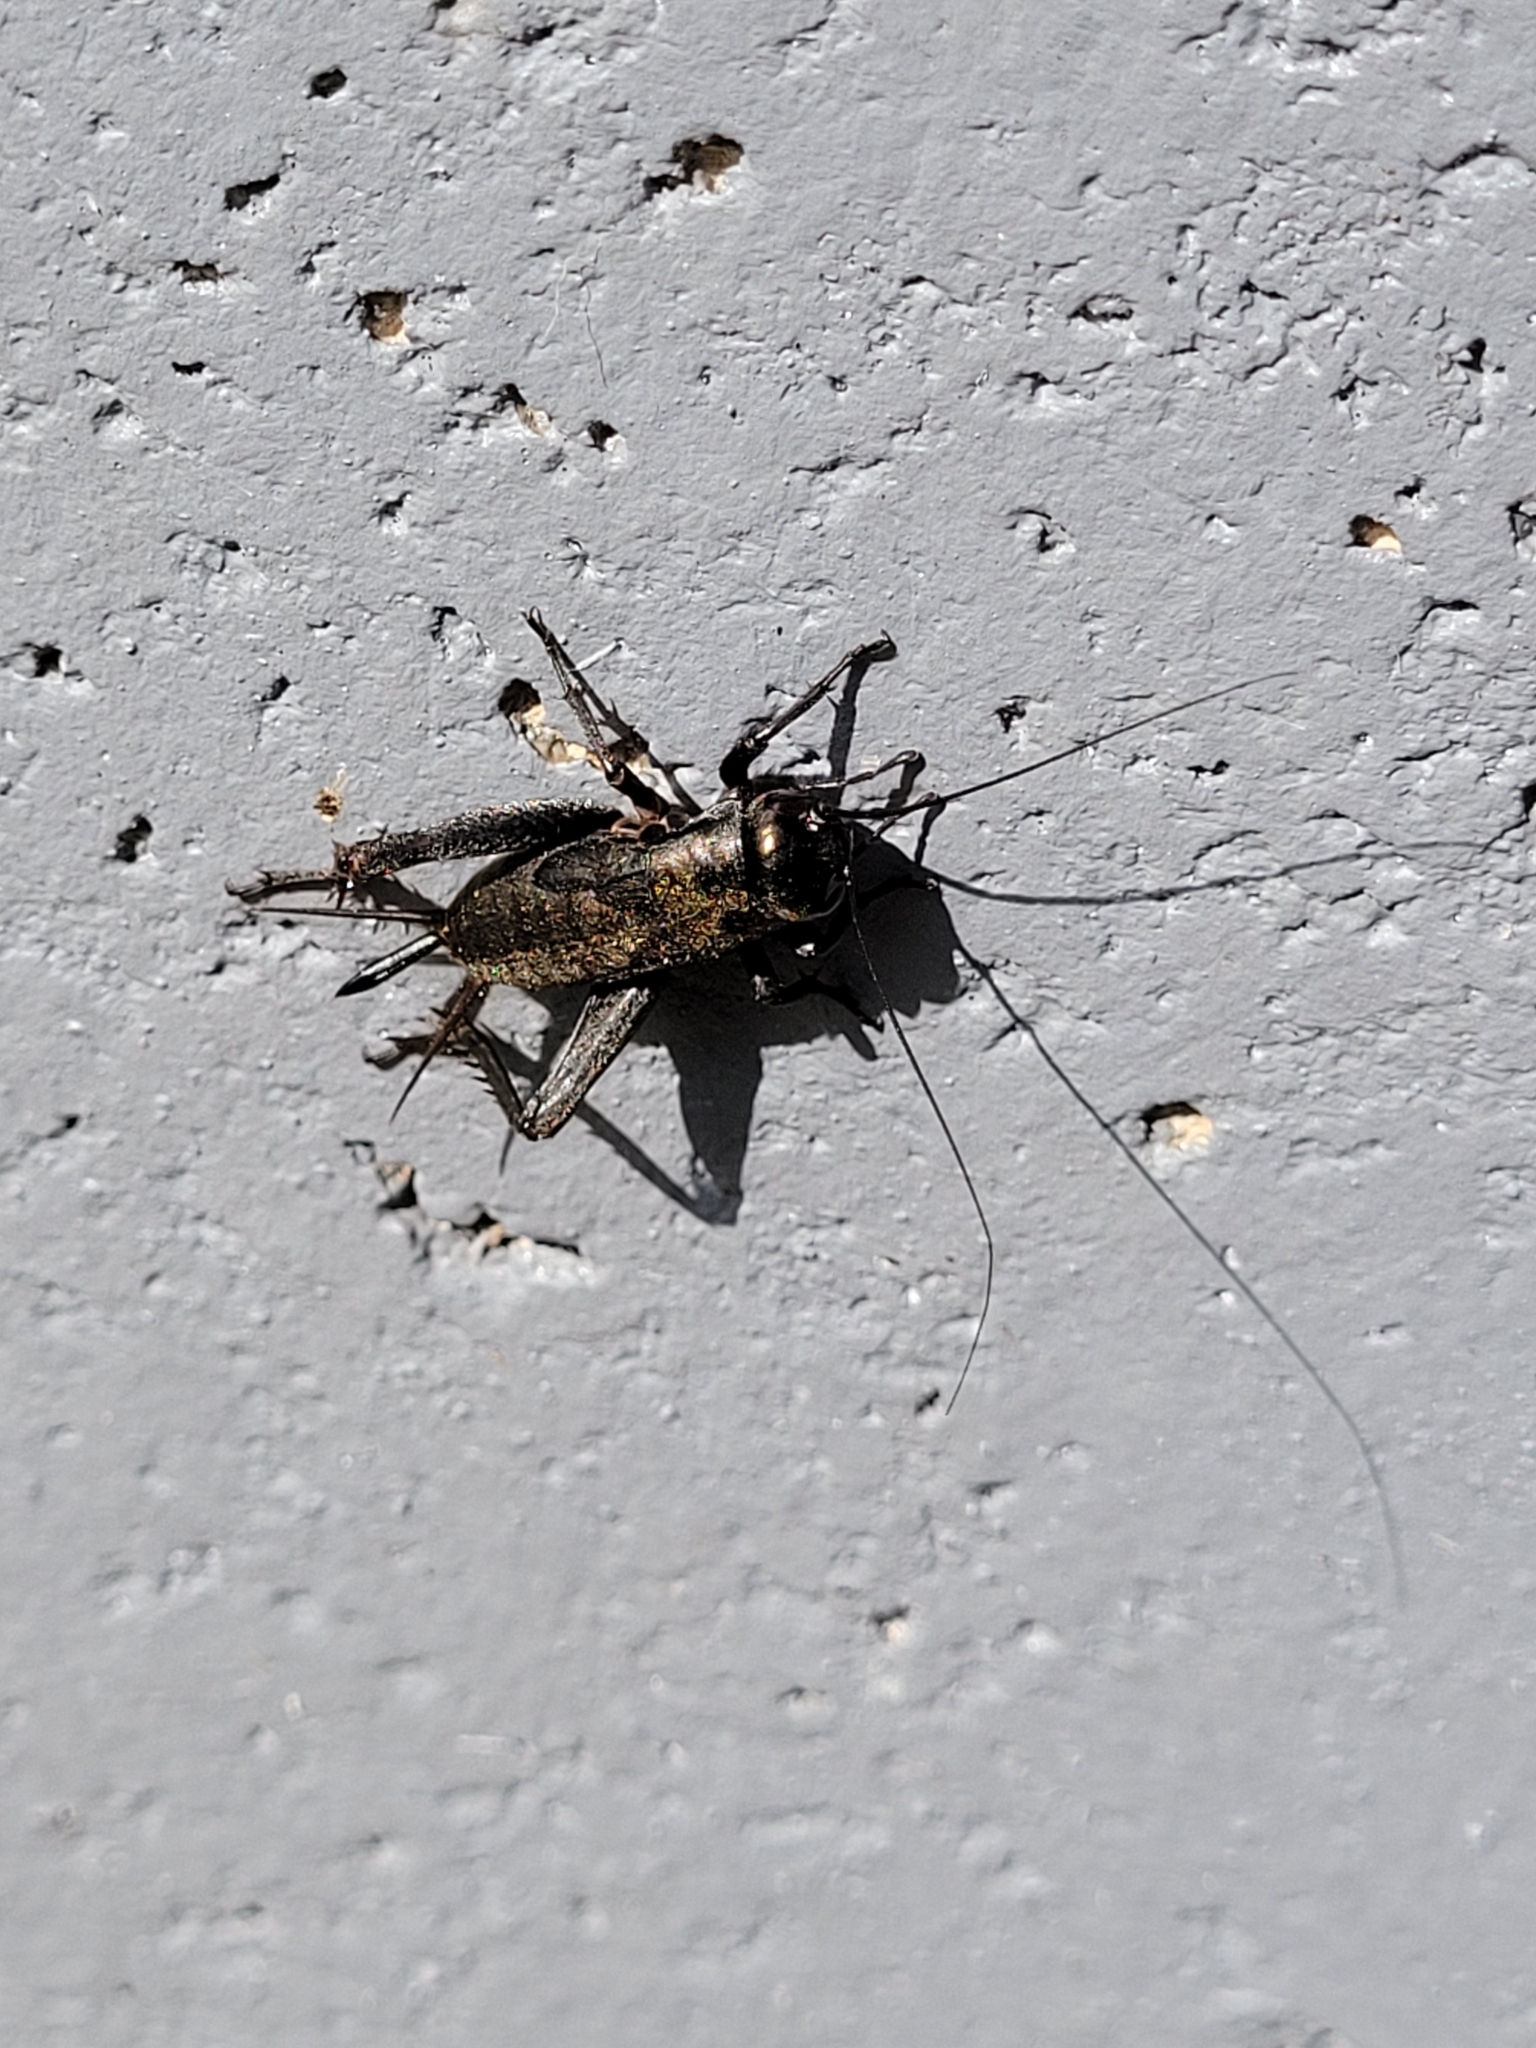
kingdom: Animalia
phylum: Arthropoda
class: Insecta
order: Orthoptera
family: Gryllidae
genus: Gryllus
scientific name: Gryllus pennsylvanicus
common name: Fall field cricket
